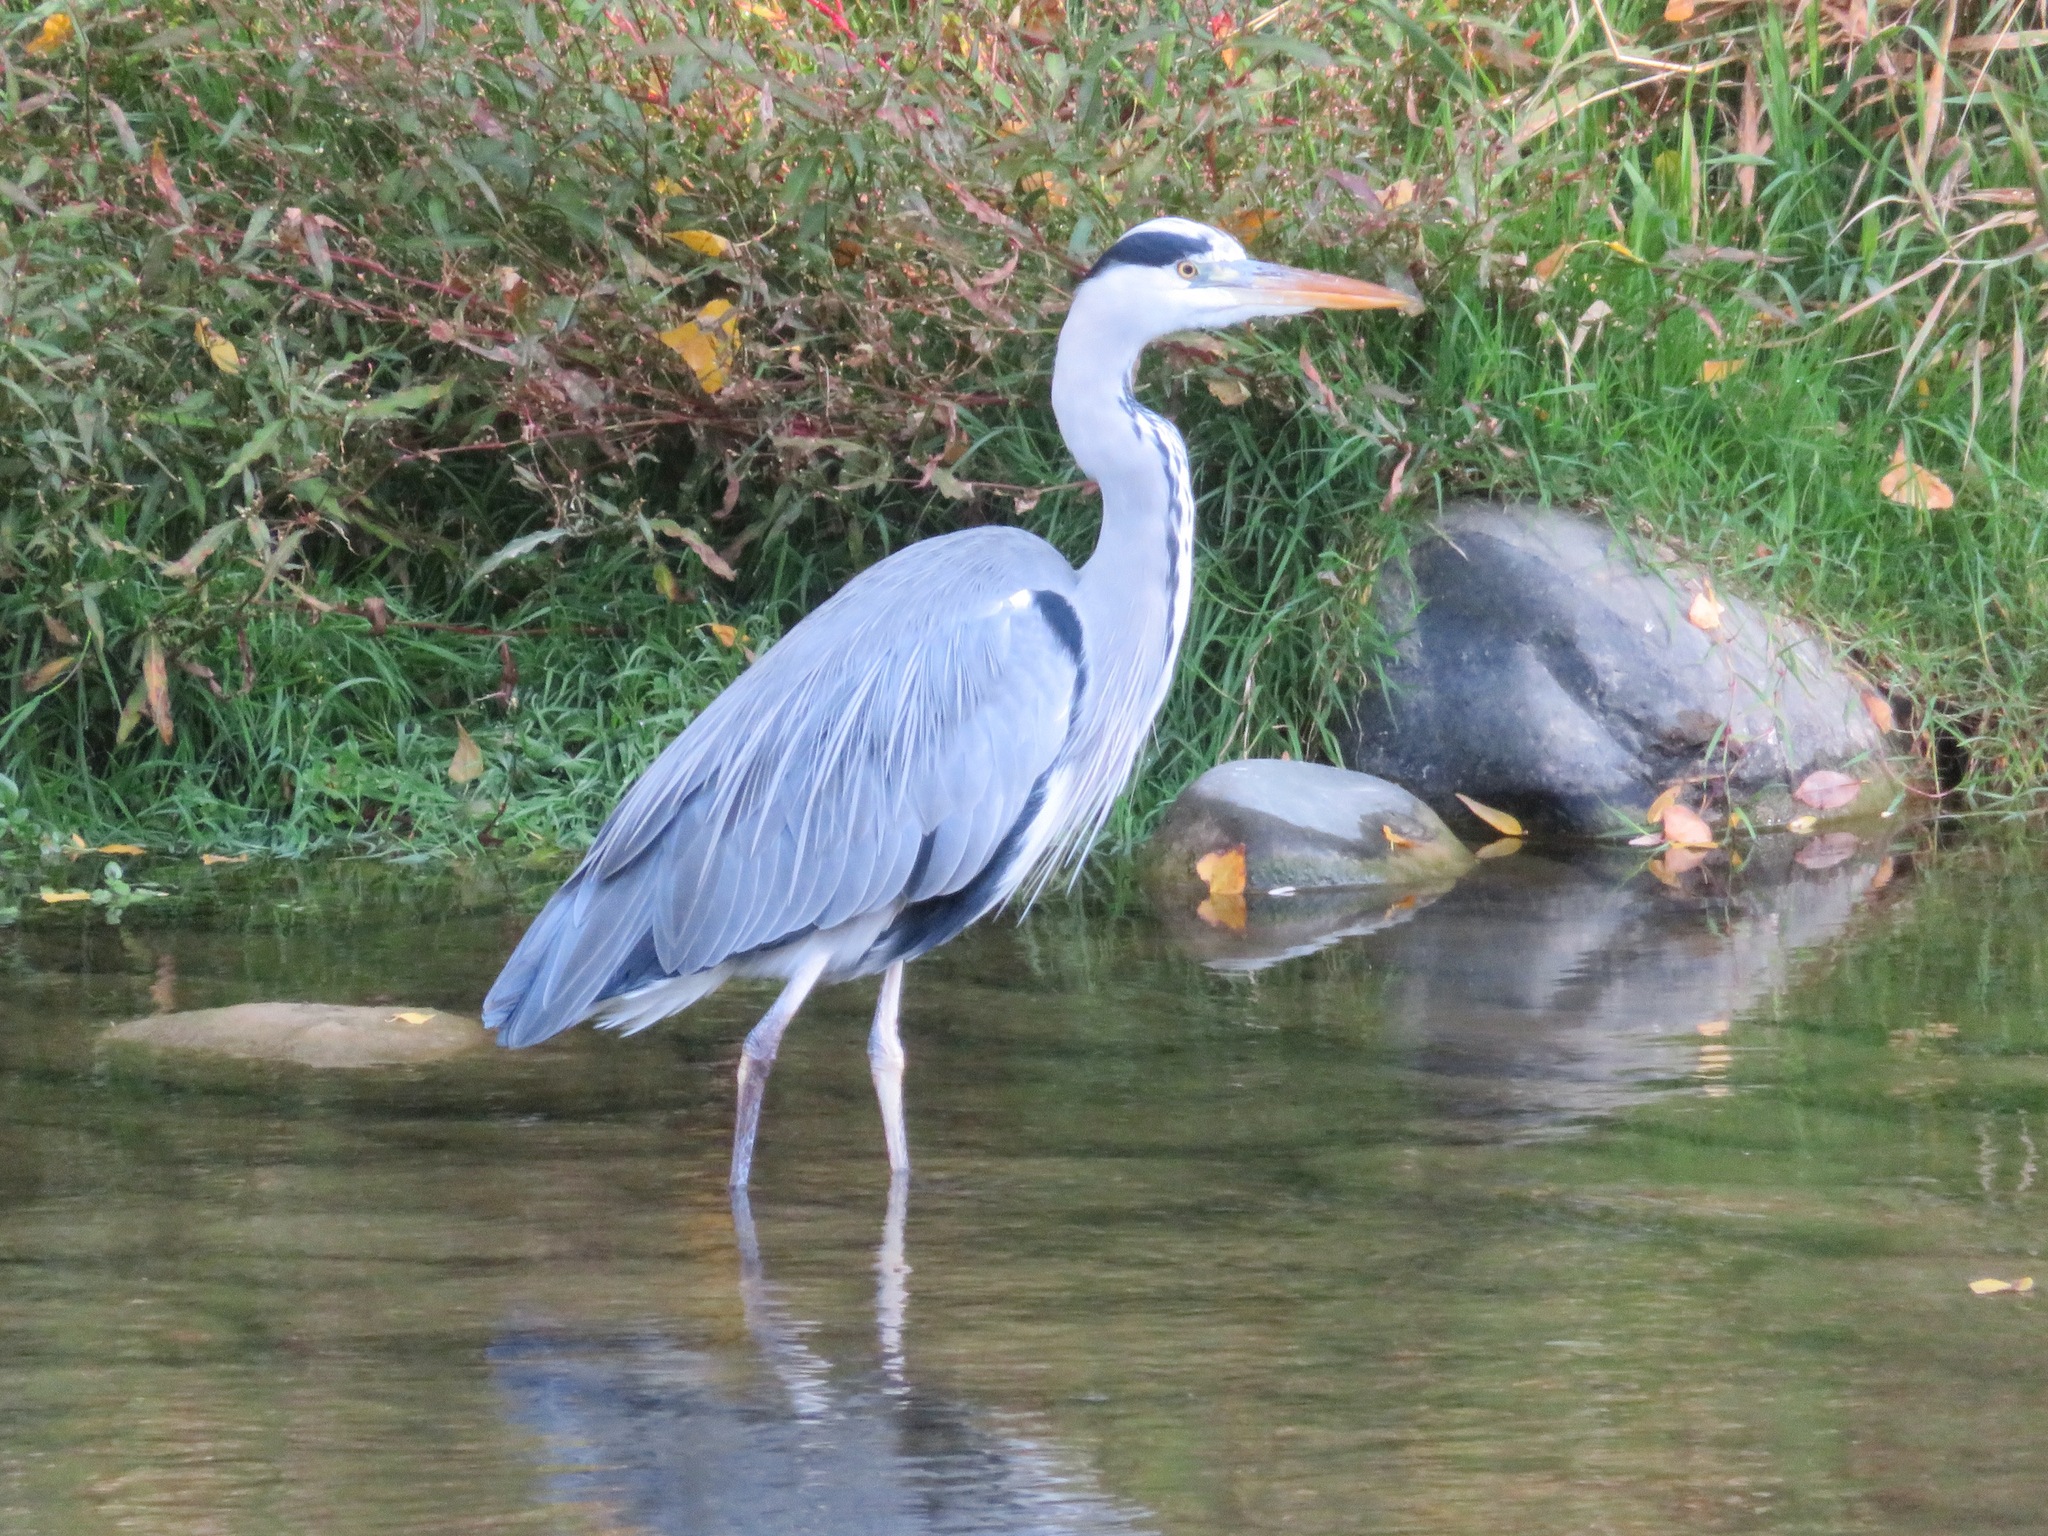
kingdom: Animalia
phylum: Chordata
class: Aves
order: Pelecaniformes
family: Ardeidae
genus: Ardea
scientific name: Ardea cinerea
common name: Grey heron
